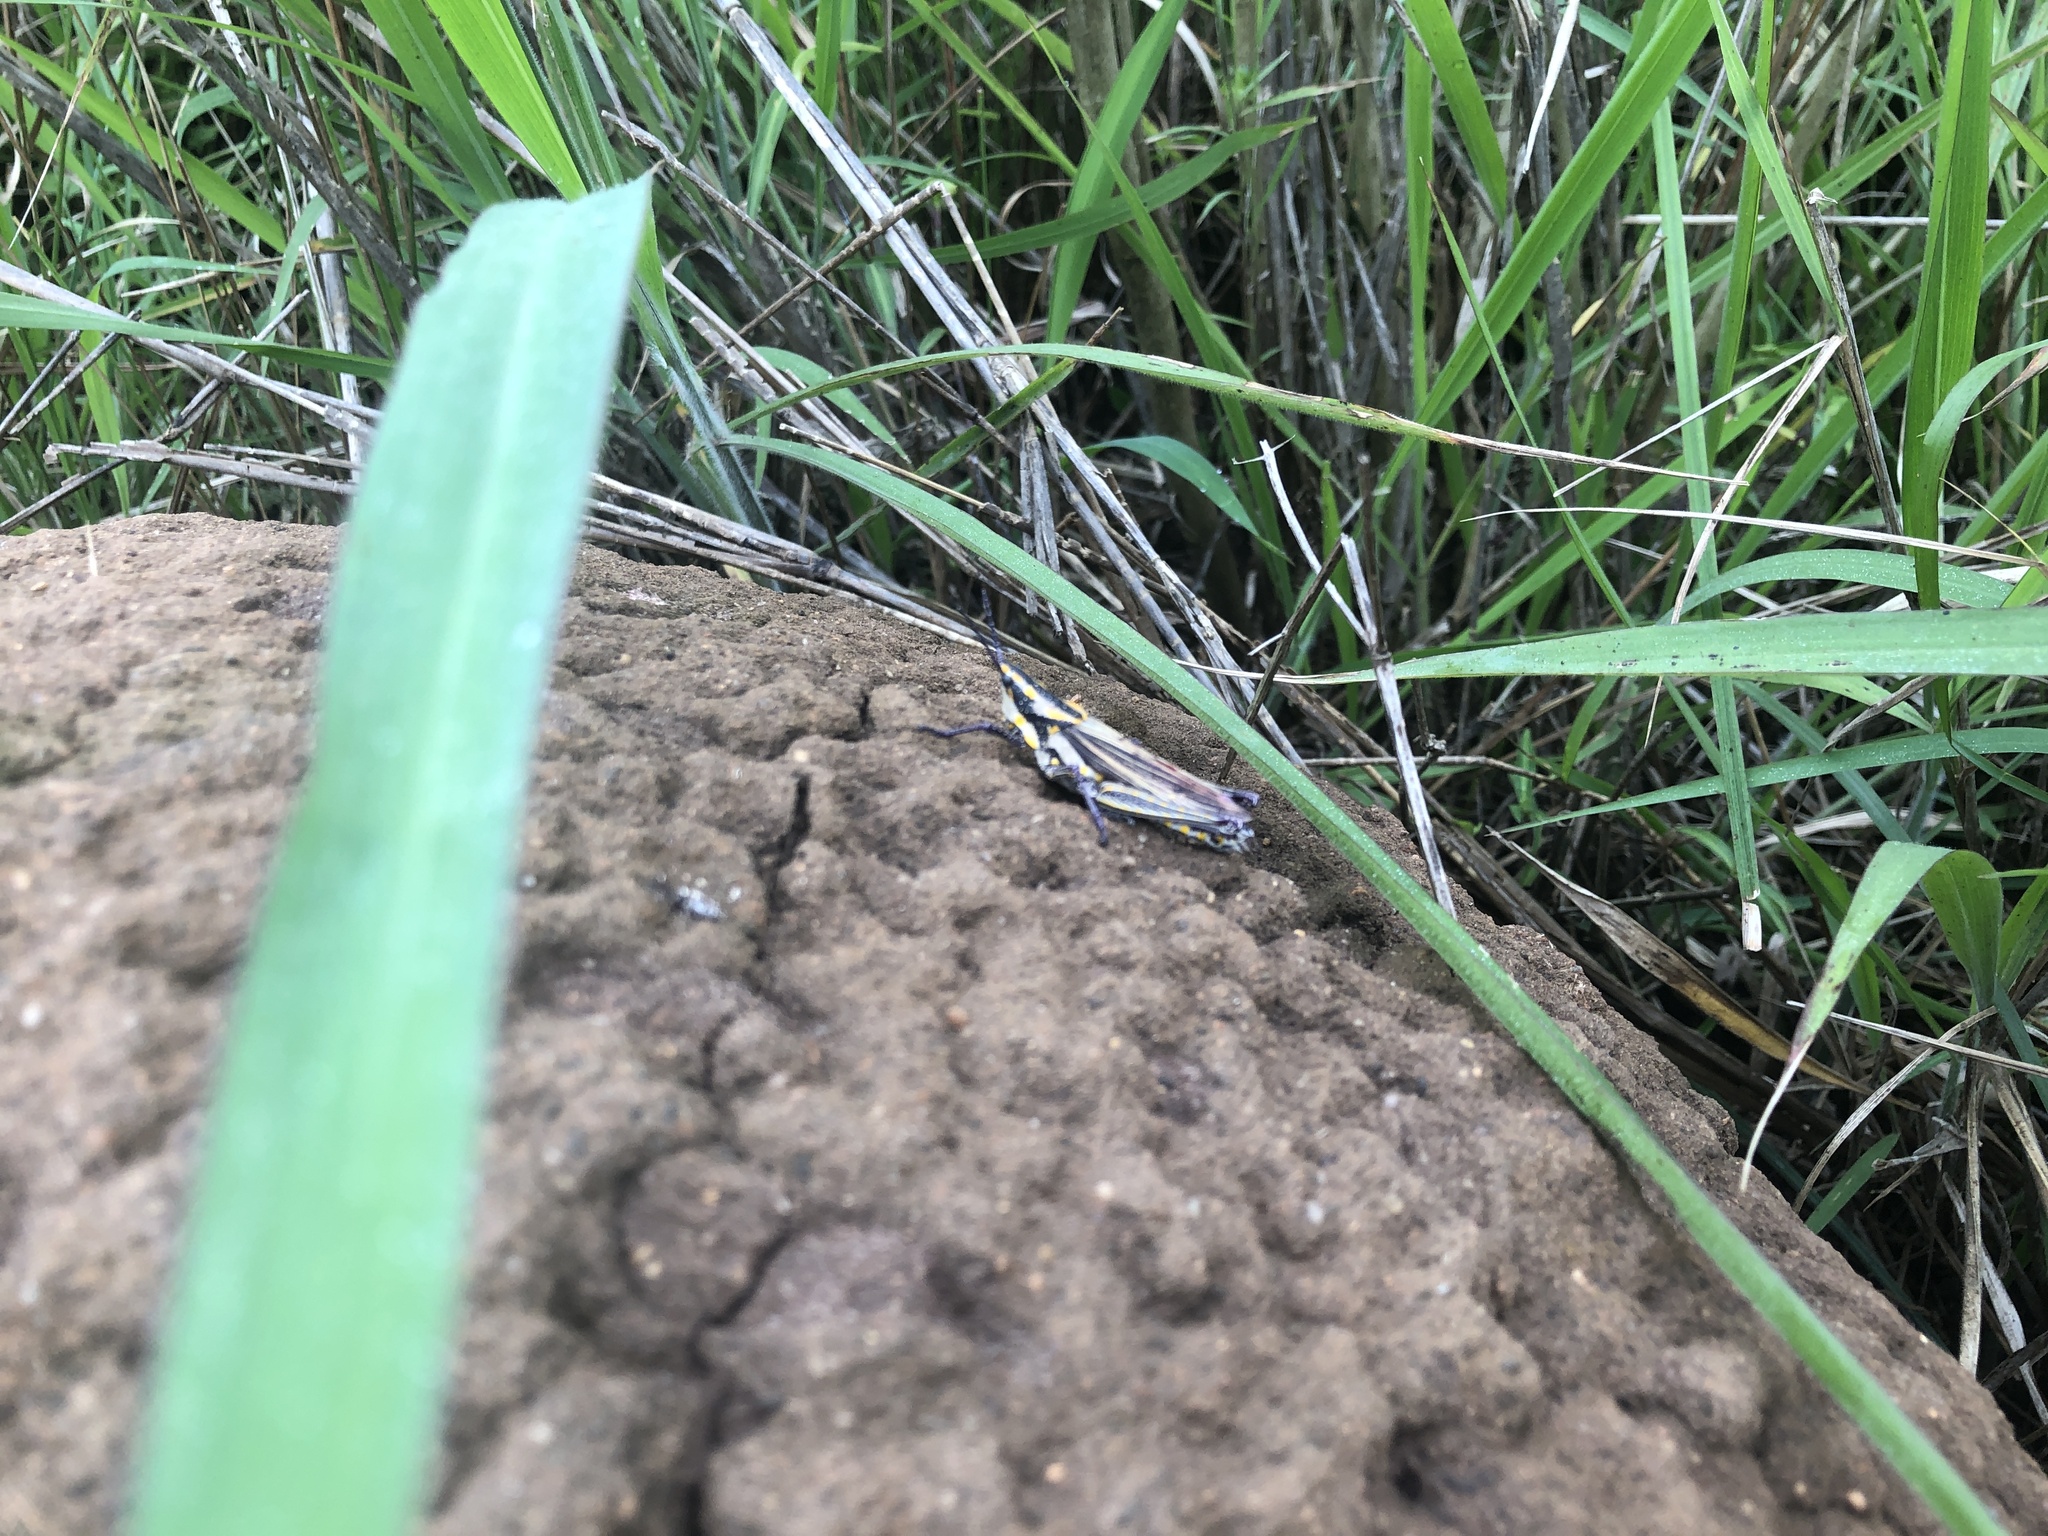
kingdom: Animalia
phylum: Arthropoda
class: Insecta
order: Orthoptera
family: Pyrgomorphidae
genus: Ochrophlebia
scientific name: Ochrophlebia cafra
